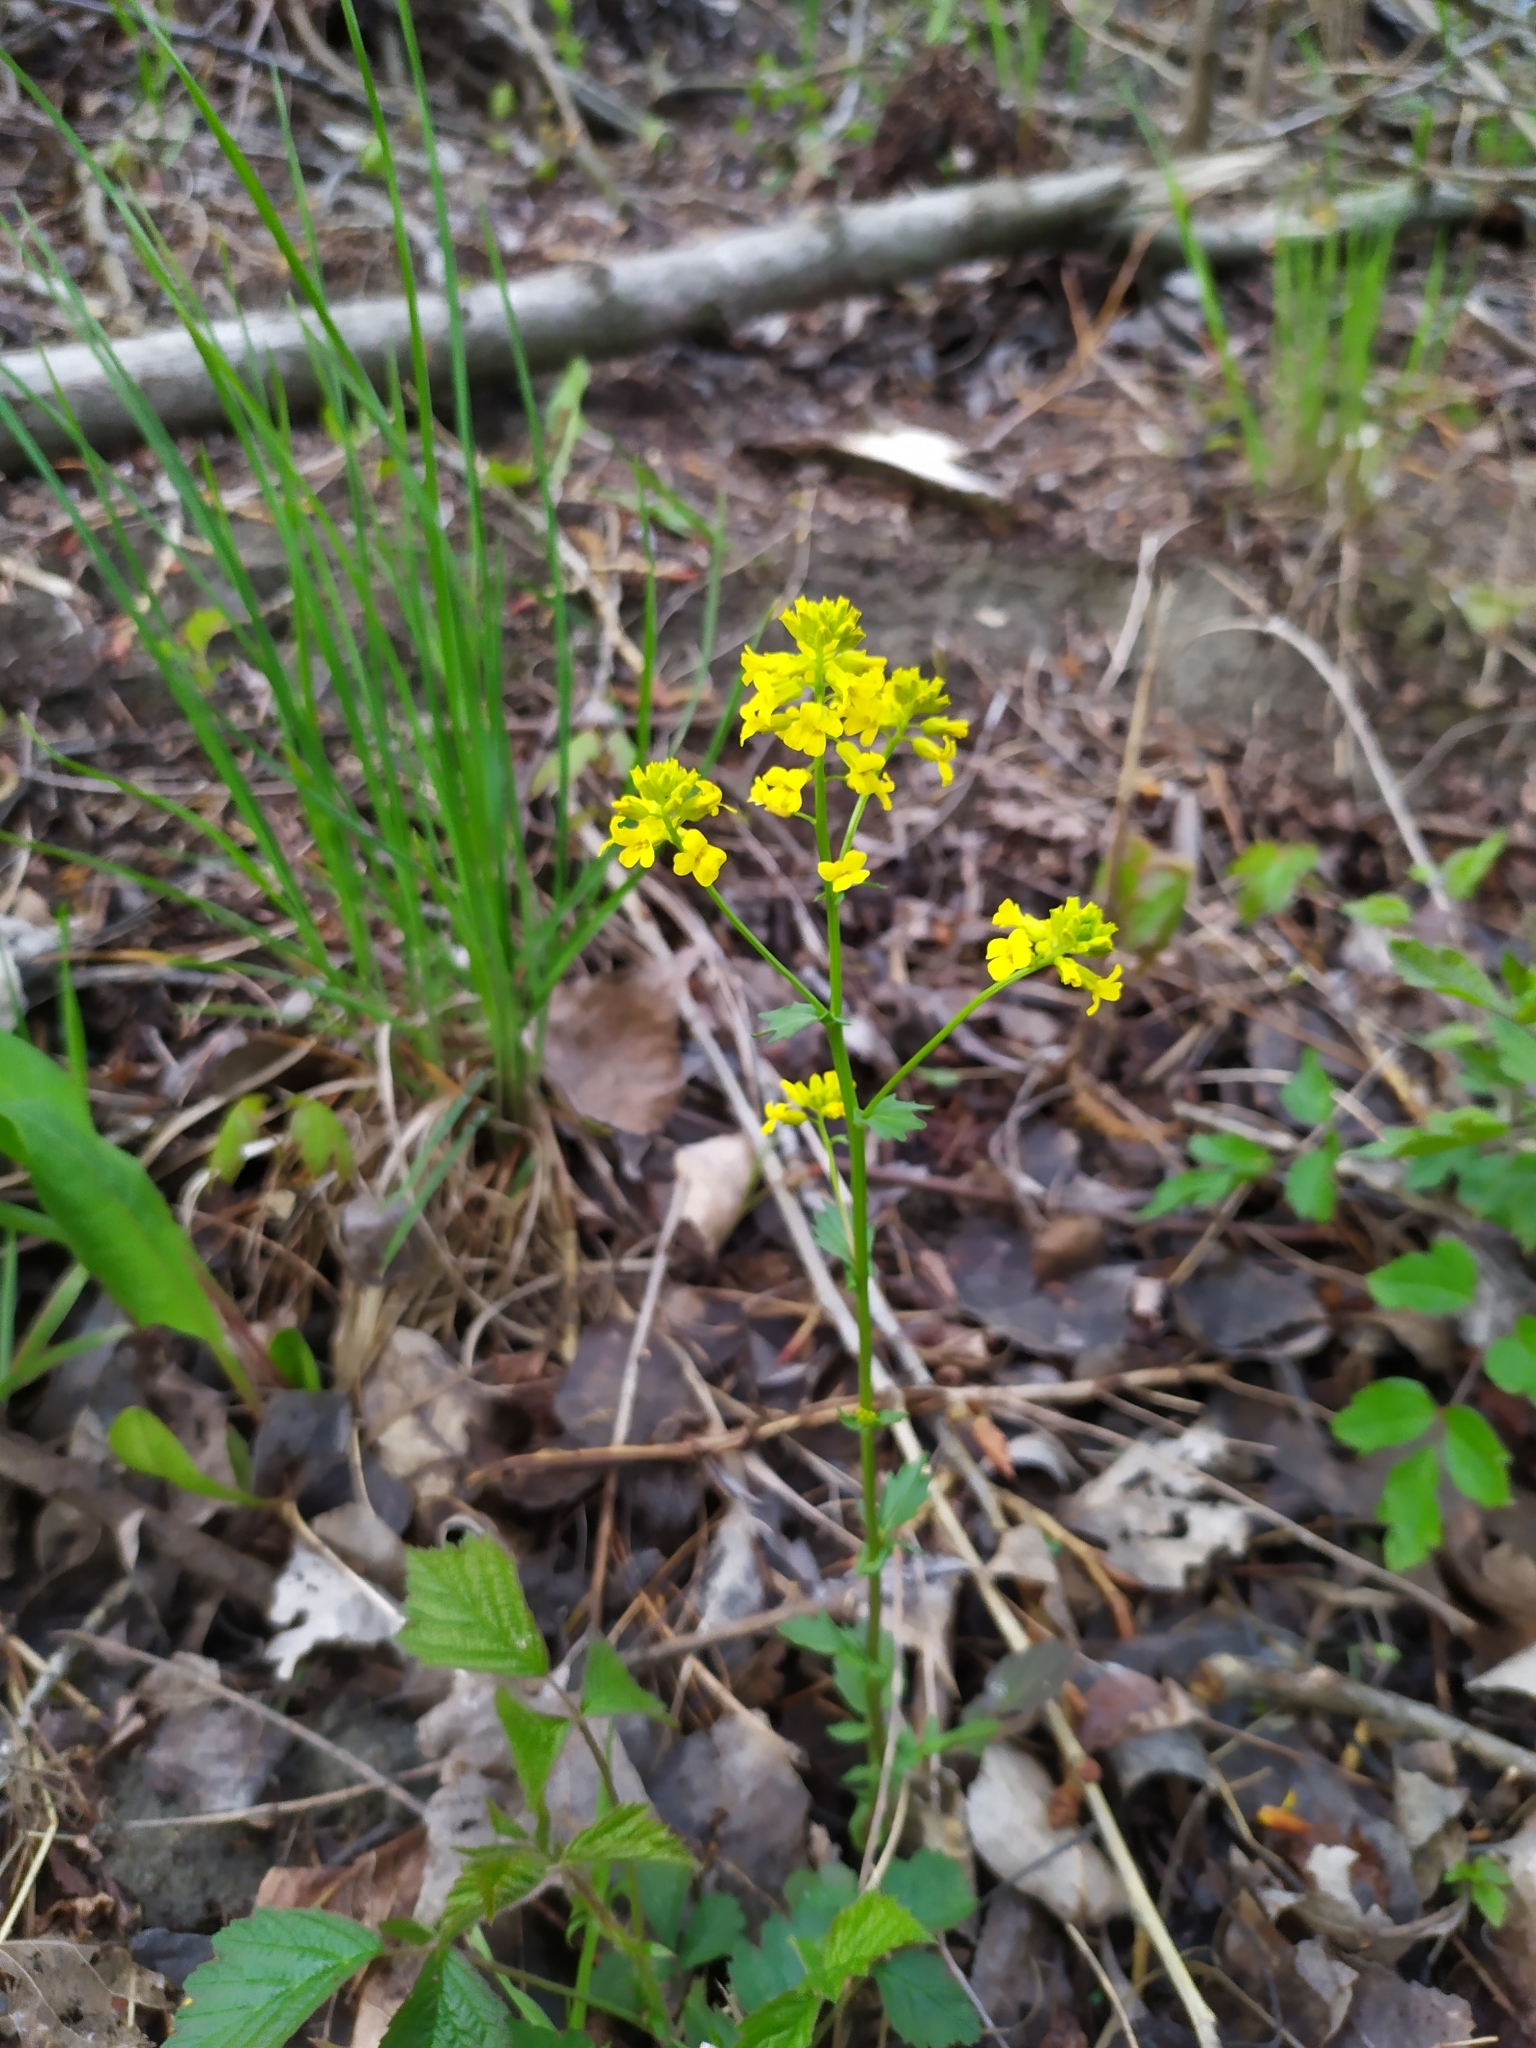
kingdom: Plantae
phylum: Tracheophyta
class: Magnoliopsida
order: Brassicales
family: Brassicaceae
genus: Barbarea
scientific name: Barbarea vulgaris
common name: Cressy-greens
